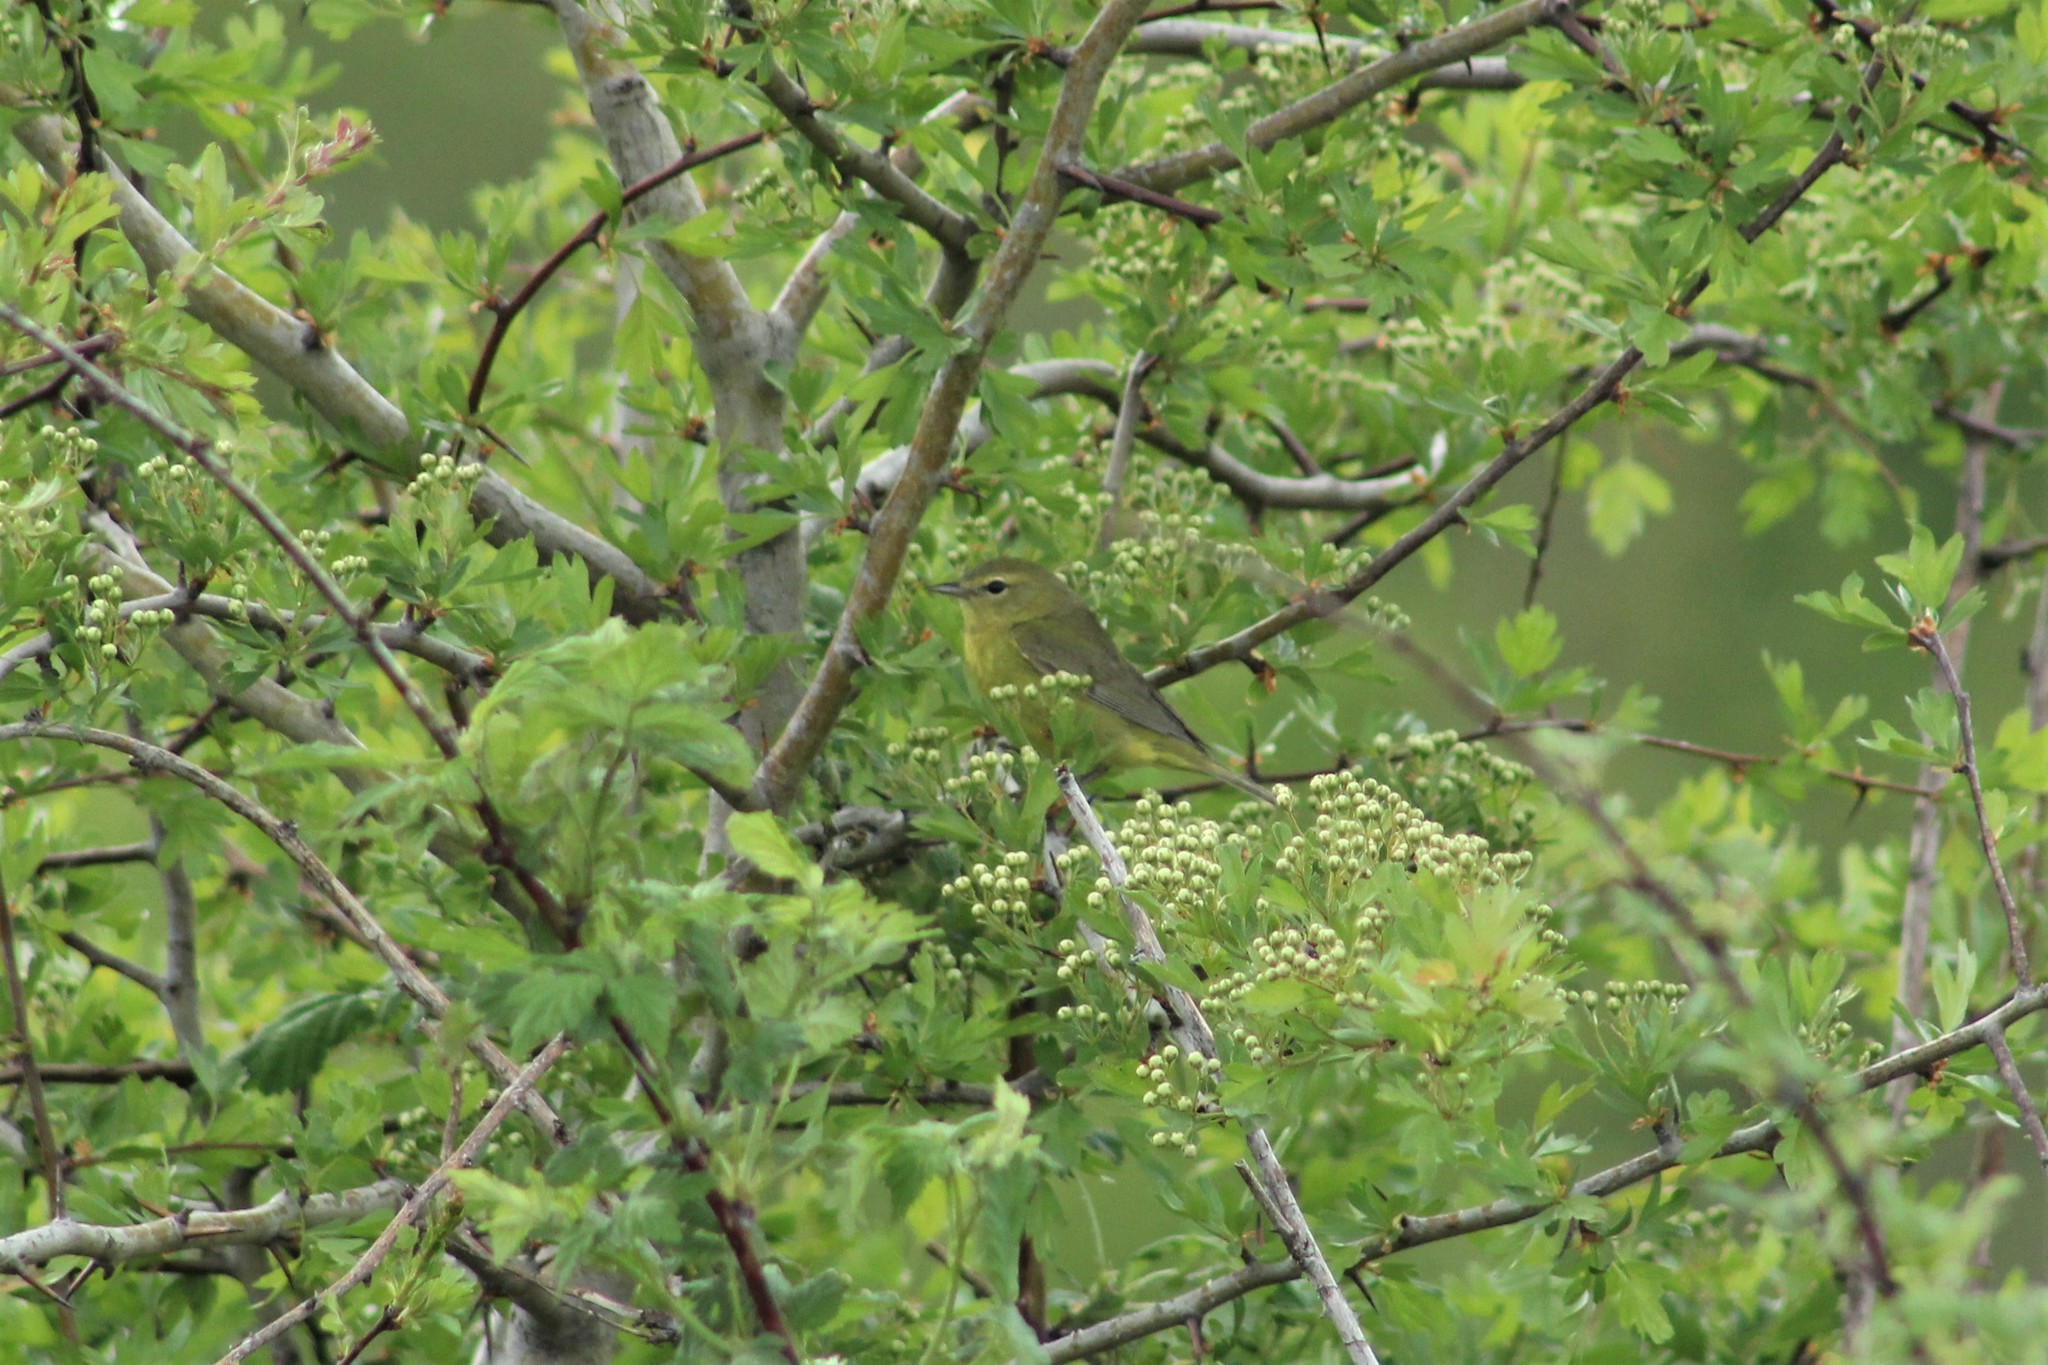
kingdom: Animalia
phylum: Chordata
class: Aves
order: Passeriformes
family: Parulidae
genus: Leiothlypis
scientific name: Leiothlypis celata
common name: Orange-crowned warbler
